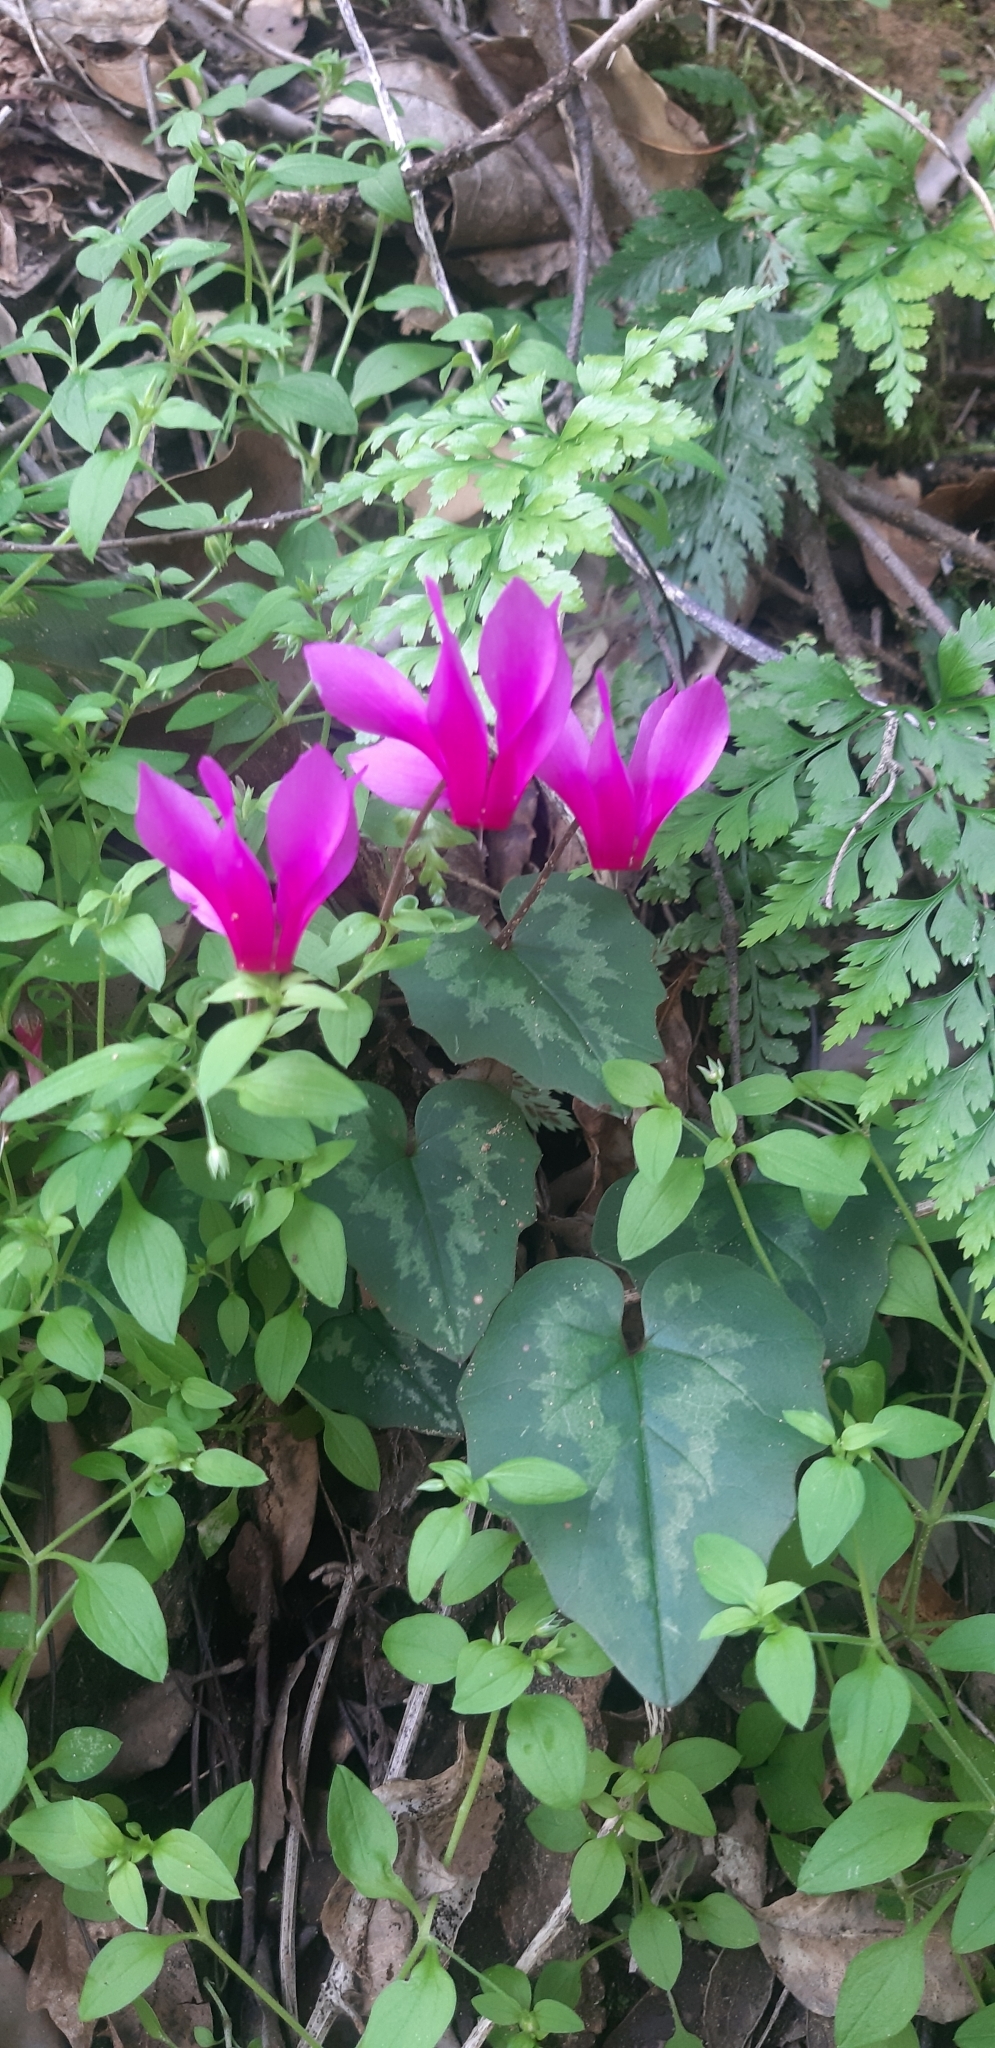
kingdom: Plantae
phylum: Tracheophyta
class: Magnoliopsida
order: Ericales
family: Primulaceae
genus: Cyclamen
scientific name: Cyclamen repandum
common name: Spring sowbread
